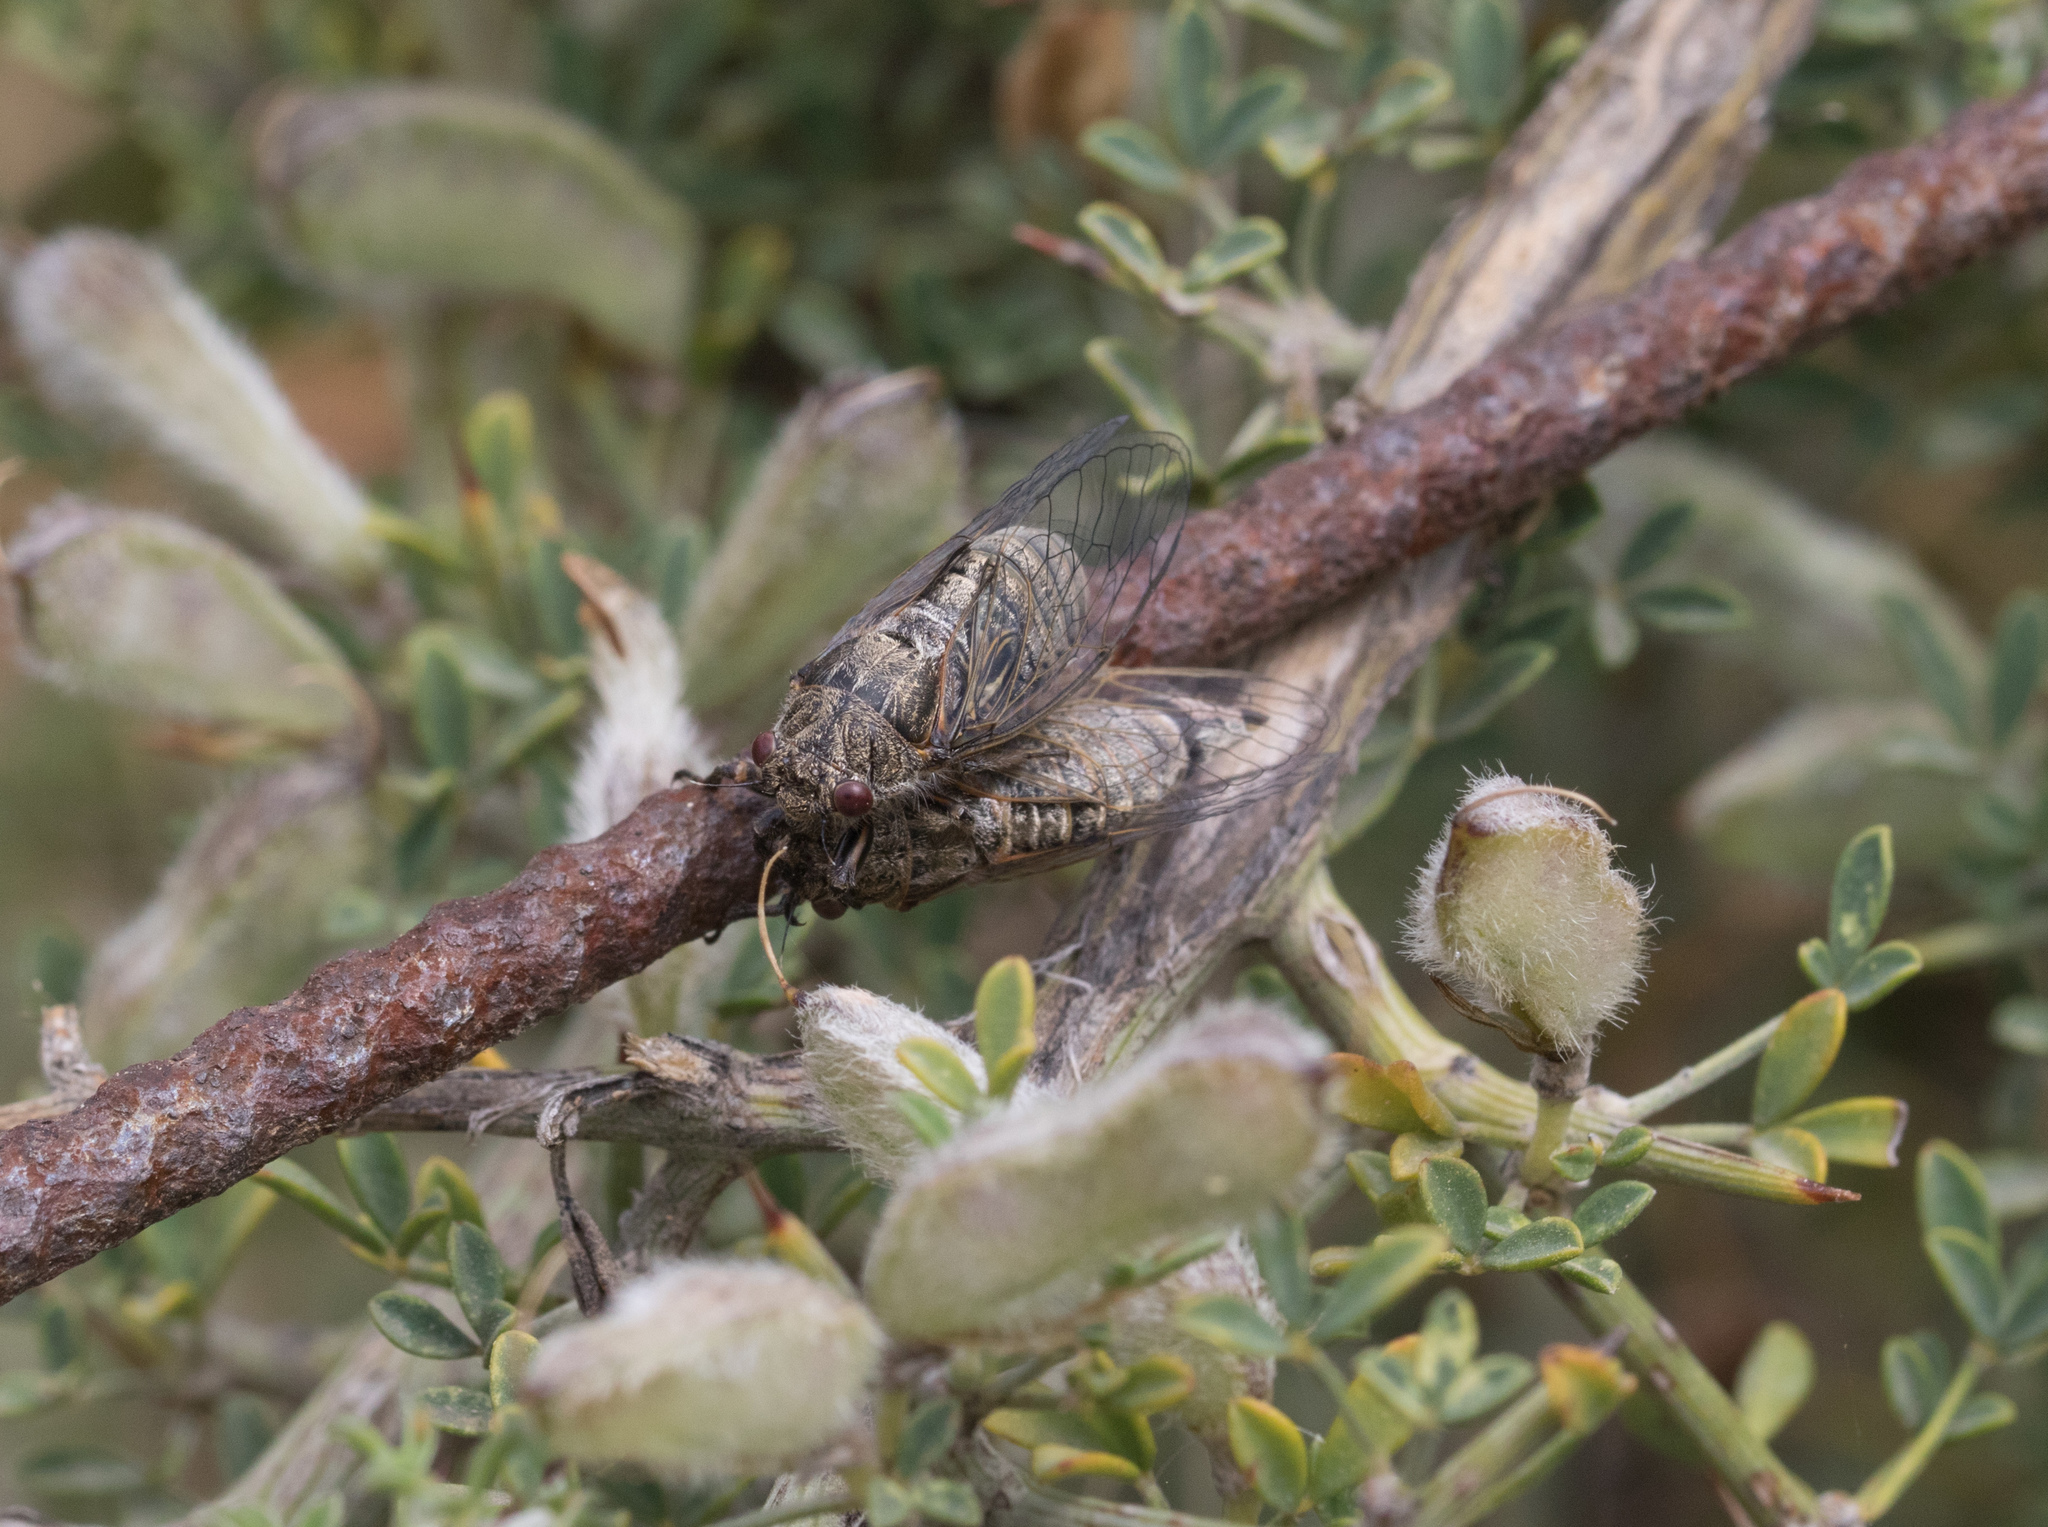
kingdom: Animalia
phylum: Arthropoda
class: Insecta
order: Hemiptera
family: Cicadidae
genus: Oligoglena
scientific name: Oligoglena carayoni
